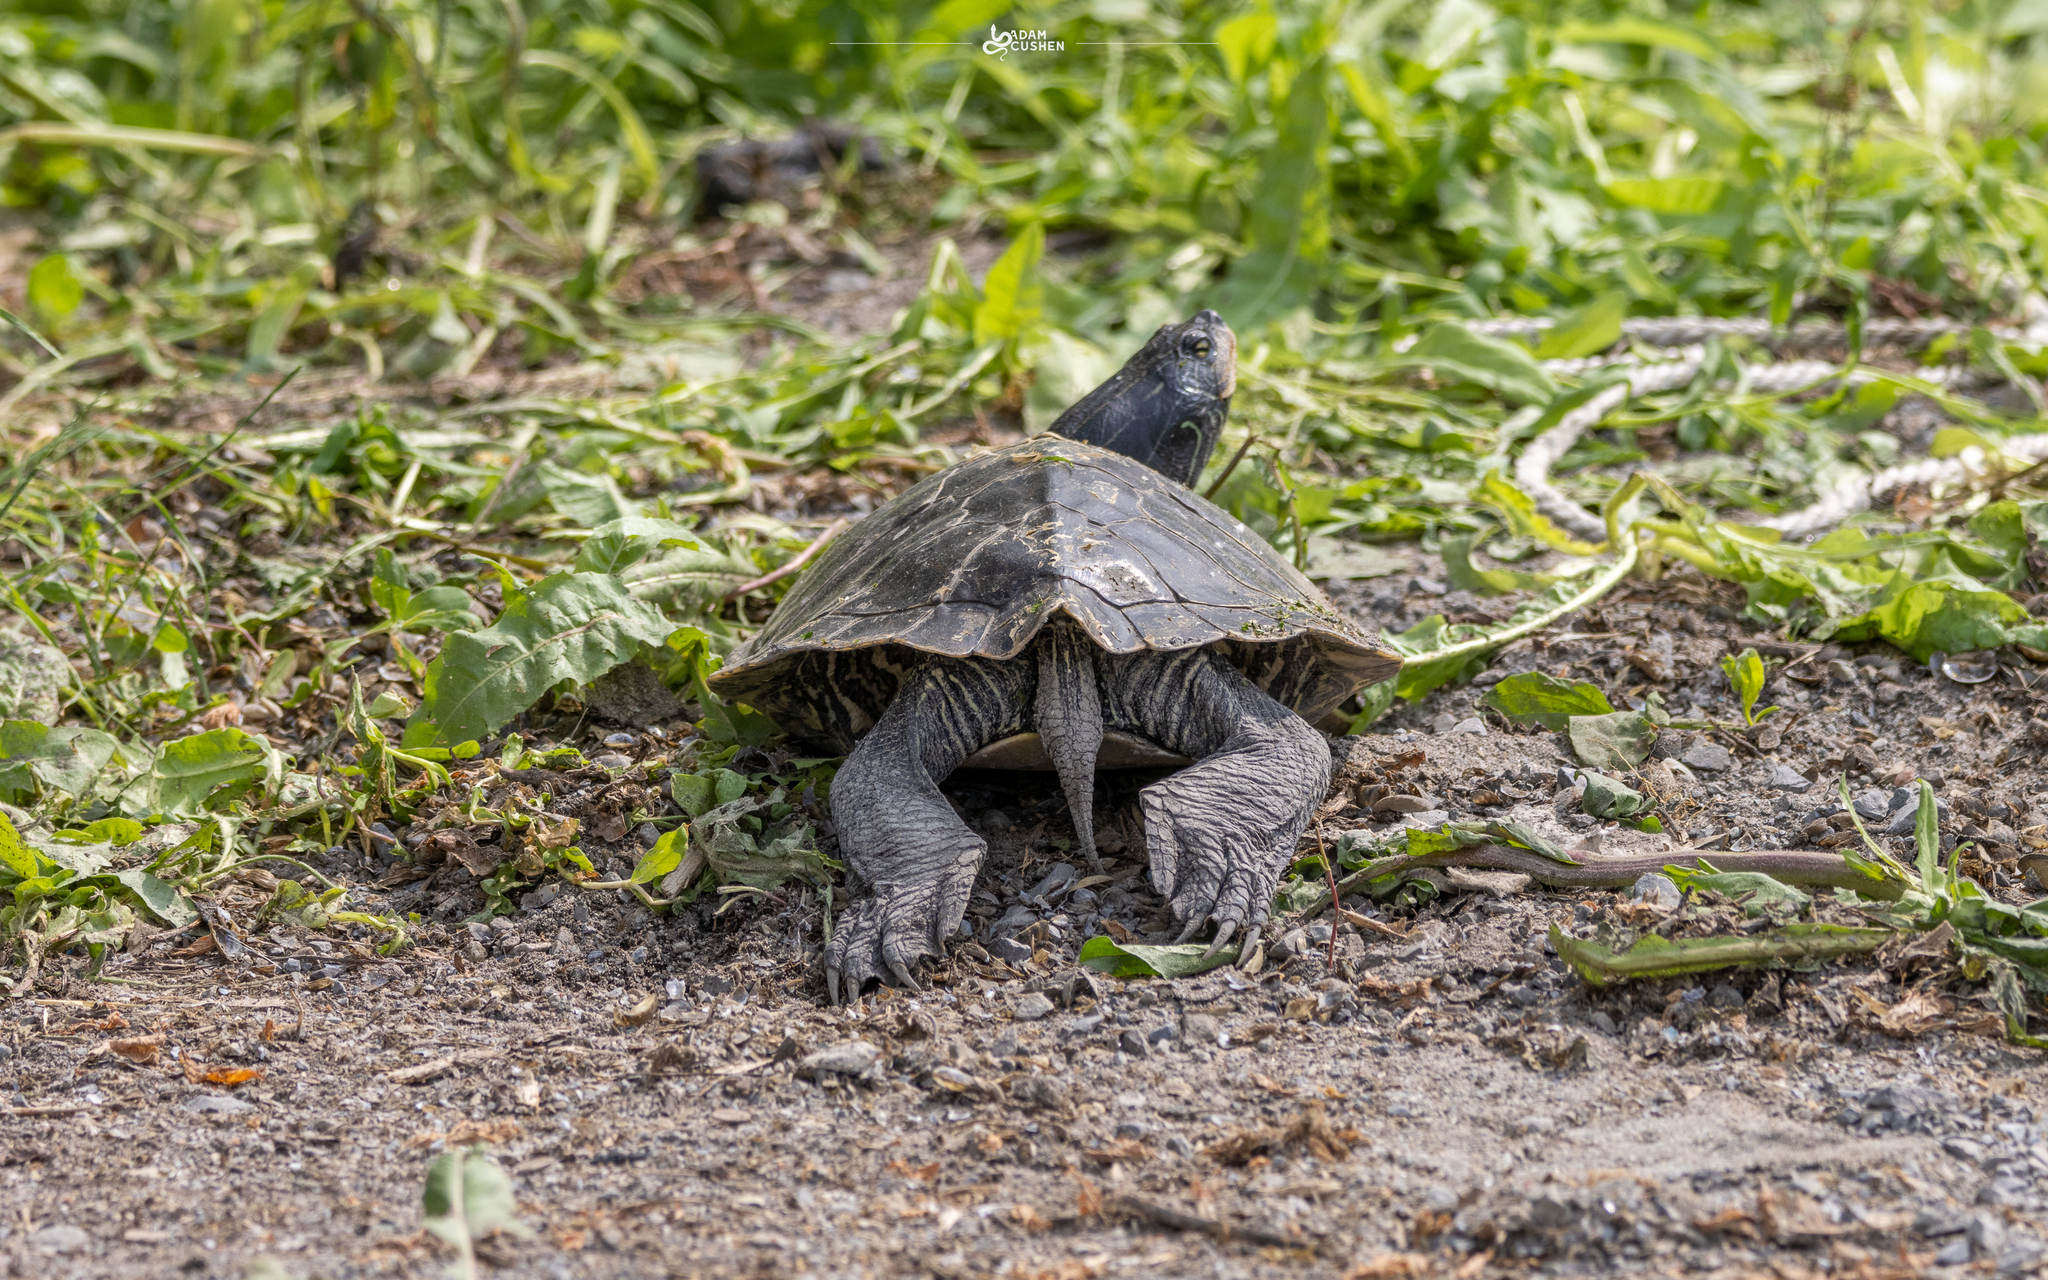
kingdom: Animalia
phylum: Chordata
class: Testudines
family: Emydidae
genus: Graptemys
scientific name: Graptemys geographica
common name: Common map turtle
